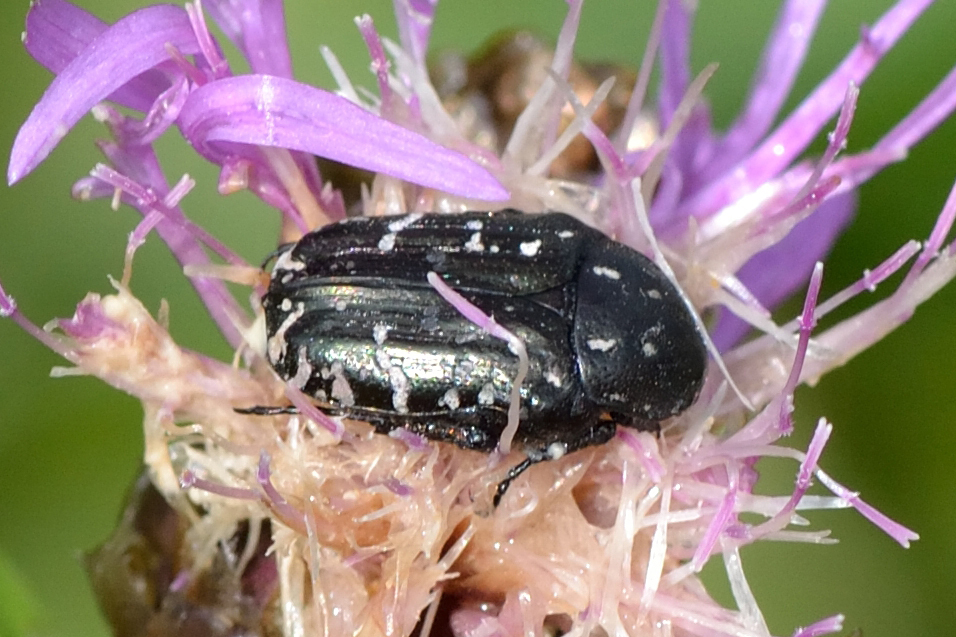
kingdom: Animalia
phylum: Arthropoda
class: Insecta
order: Coleoptera
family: Scarabaeidae
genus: Oxythyrea
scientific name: Oxythyrea funesta
